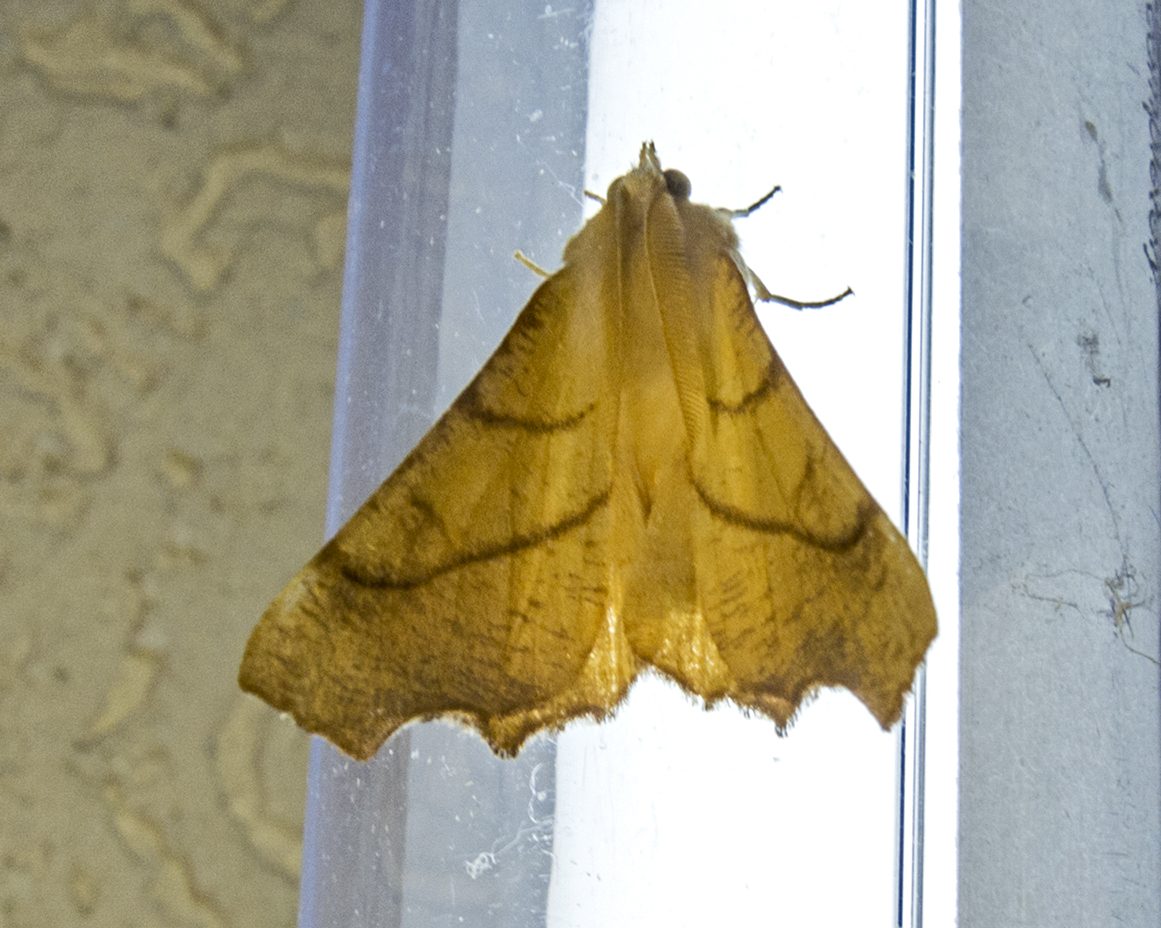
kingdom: Animalia
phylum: Arthropoda
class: Insecta
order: Lepidoptera
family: Geometridae
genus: Ennomos
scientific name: Ennomos fuscantaria
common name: Dusky thorn
